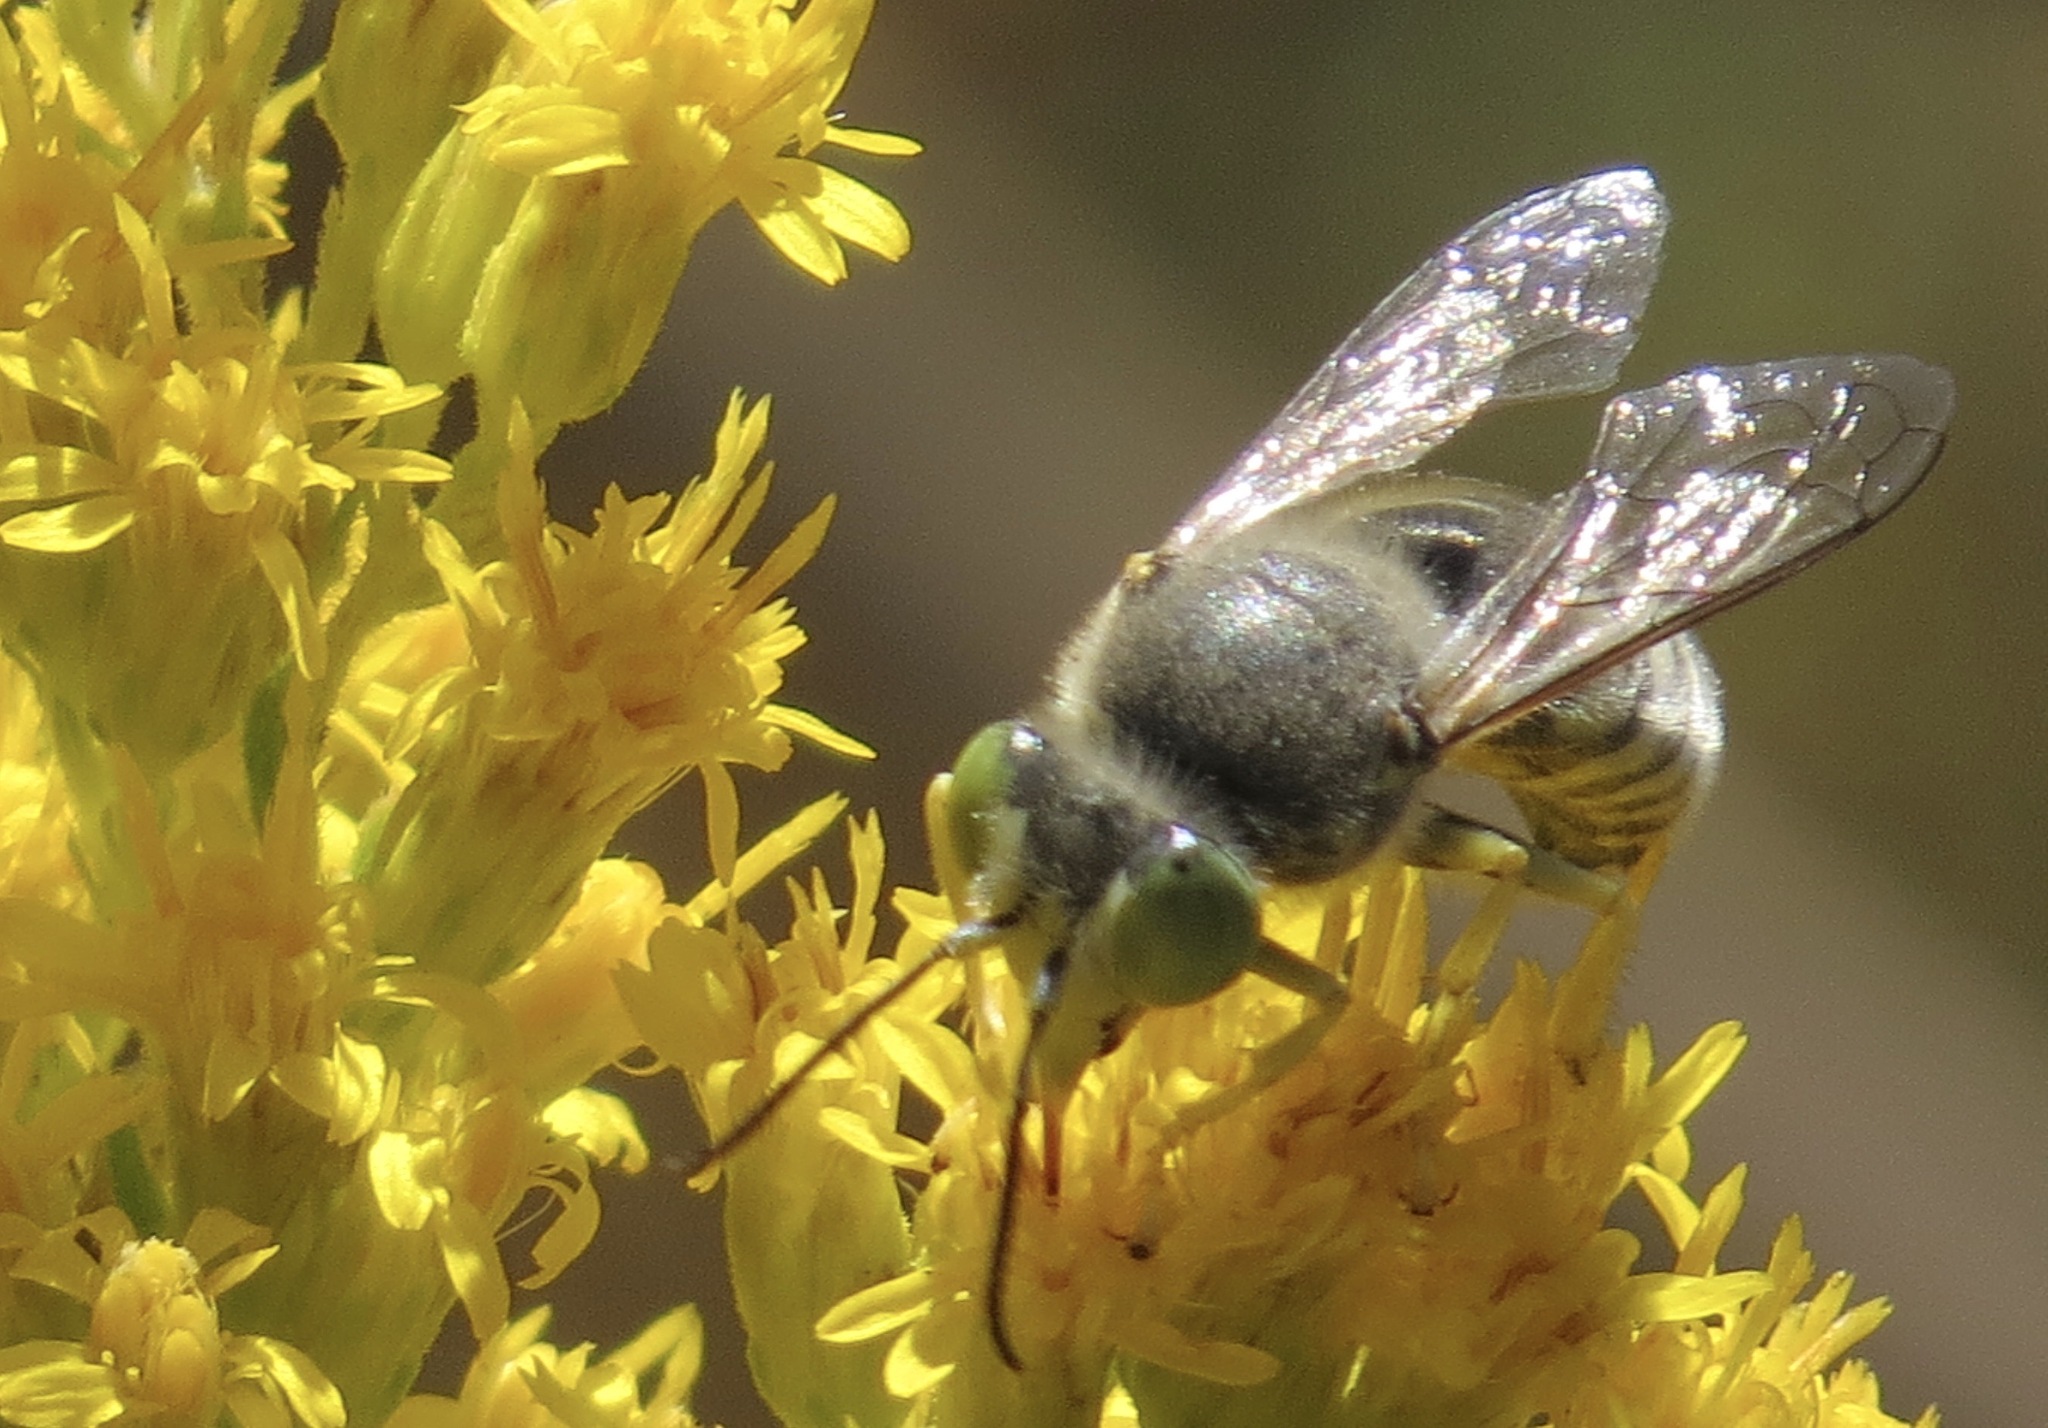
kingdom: Animalia
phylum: Arthropoda
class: Insecta
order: Hymenoptera
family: Crabronidae
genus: Bembix
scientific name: Bembix americana
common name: American sand wasp
